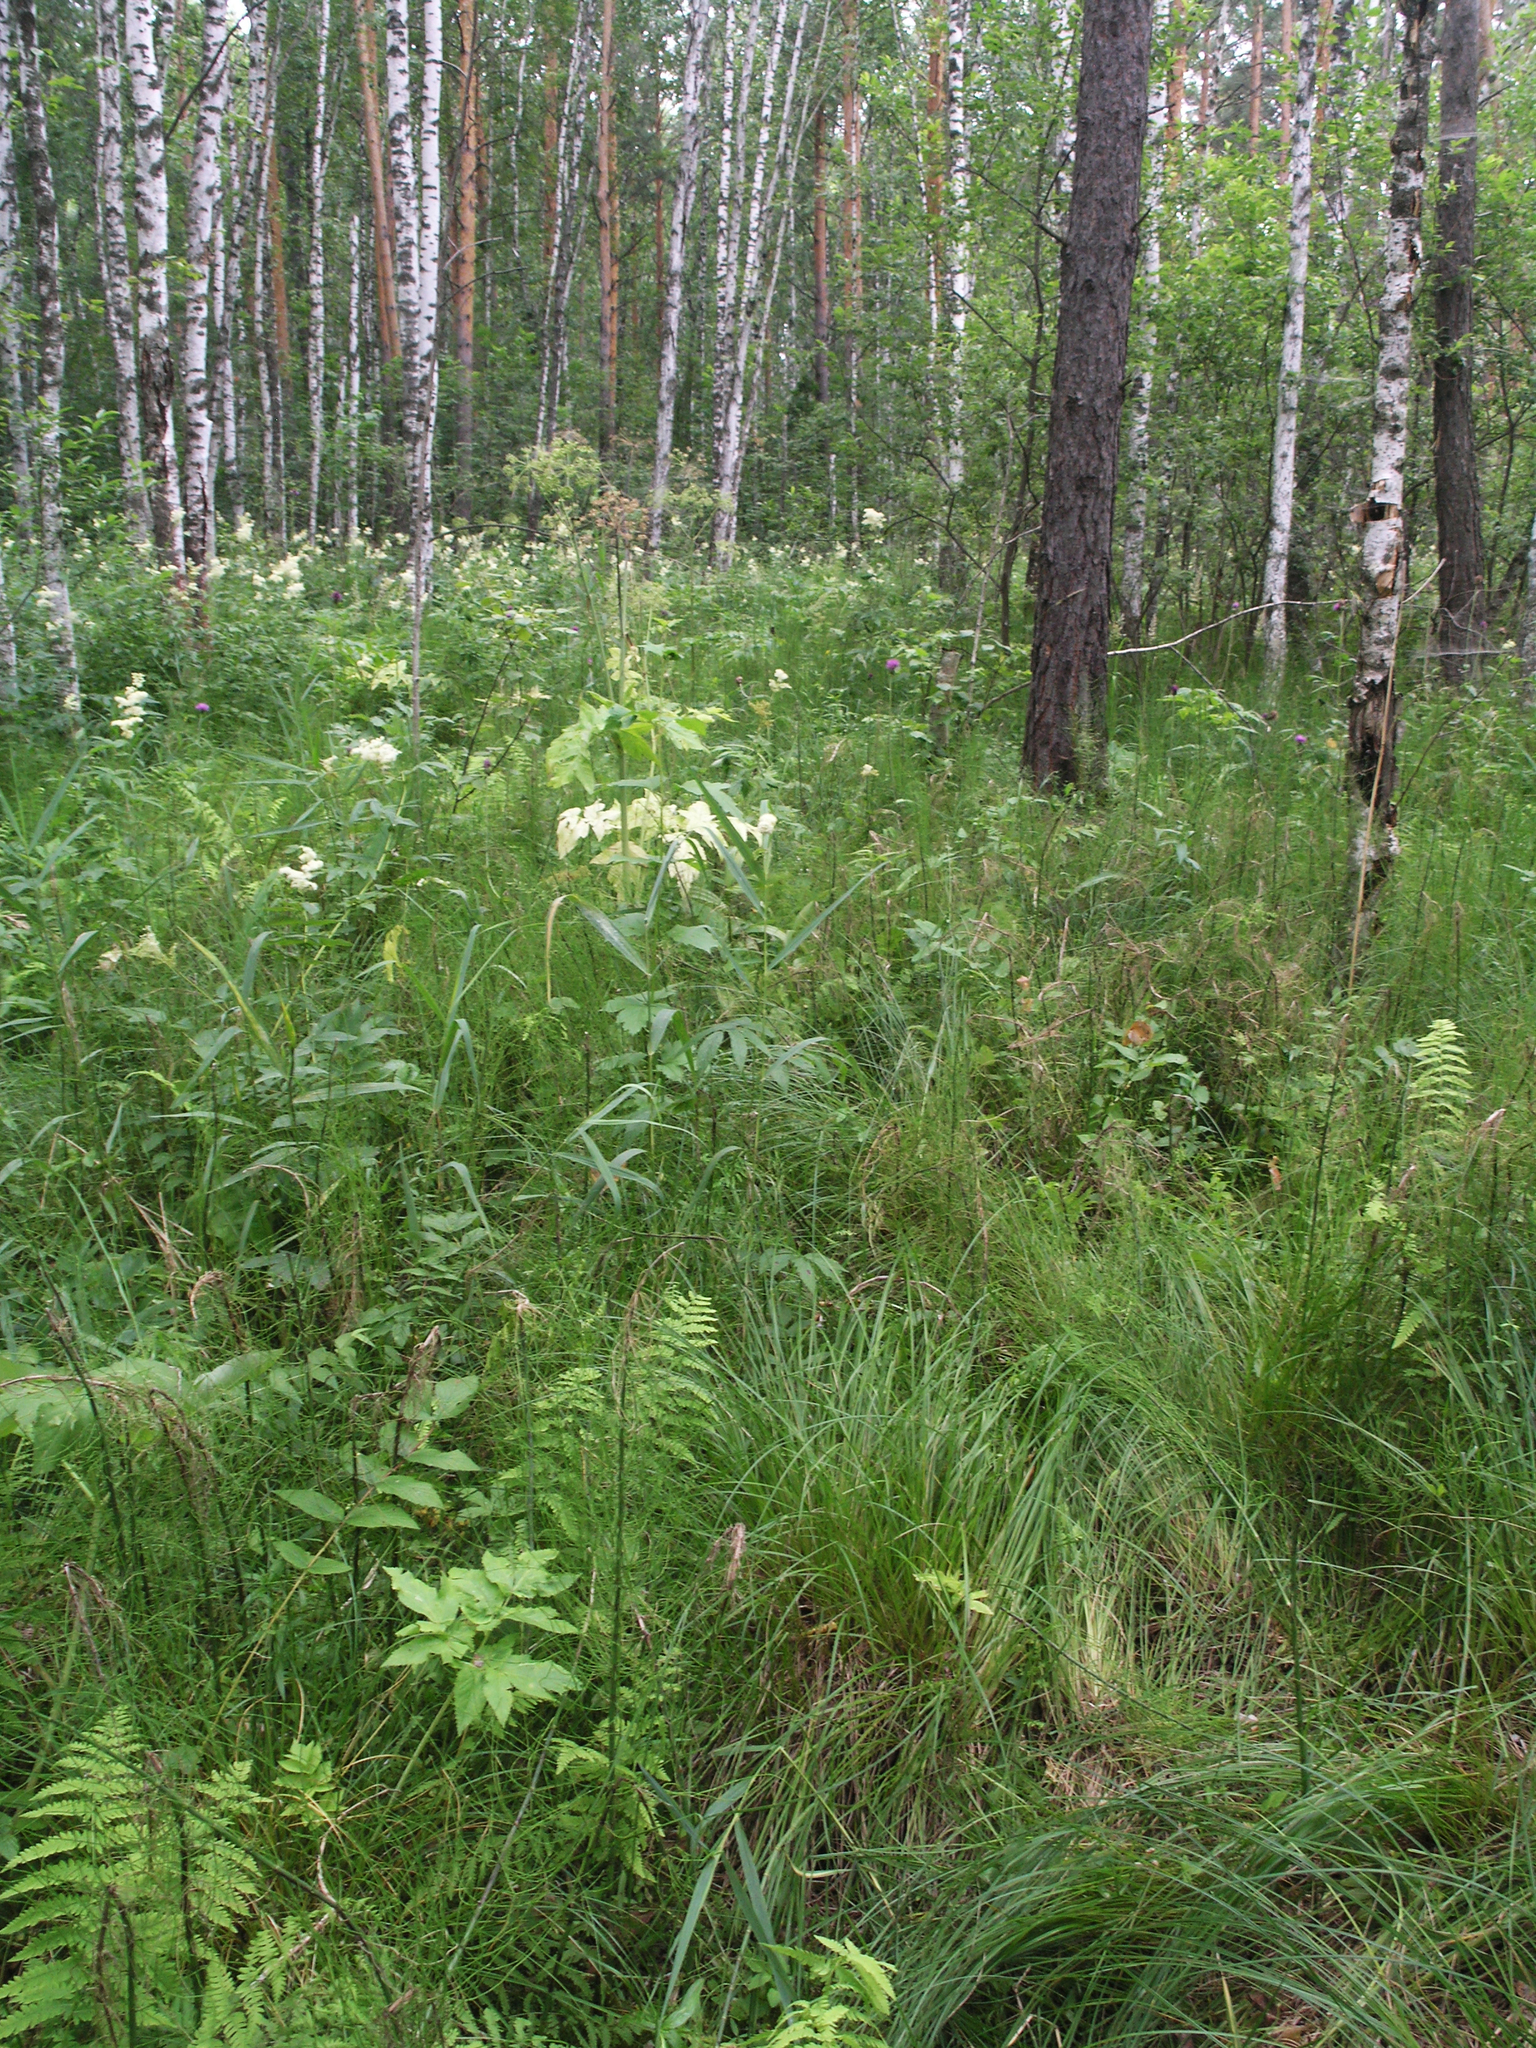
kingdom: Plantae
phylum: Tracheophyta
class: Polypodiopsida
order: Polypodiales
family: Thelypteridaceae
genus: Thelypteris
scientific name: Thelypteris palustris
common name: Marsh fern
